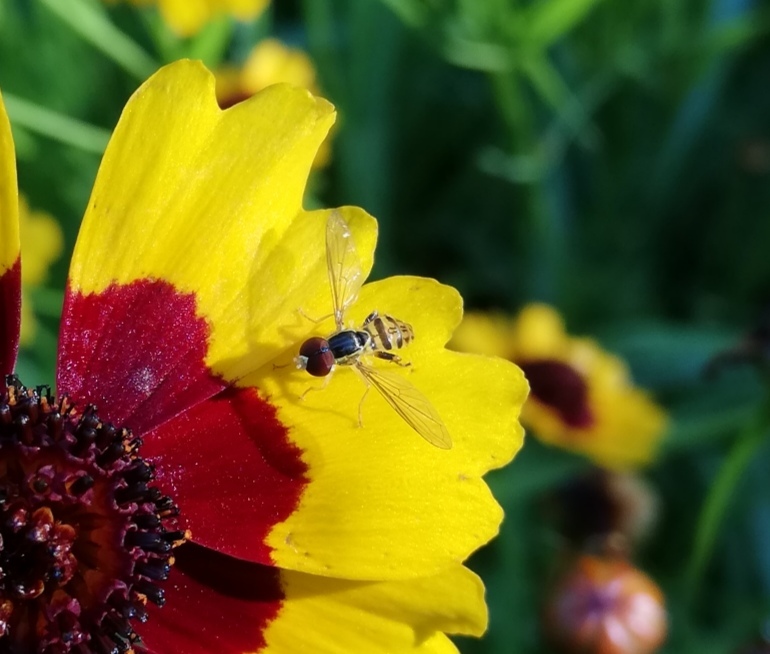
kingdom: Animalia
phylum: Arthropoda
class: Insecta
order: Diptera
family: Syrphidae
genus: Toxomerus
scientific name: Toxomerus geminatus
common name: Eastern calligrapher
